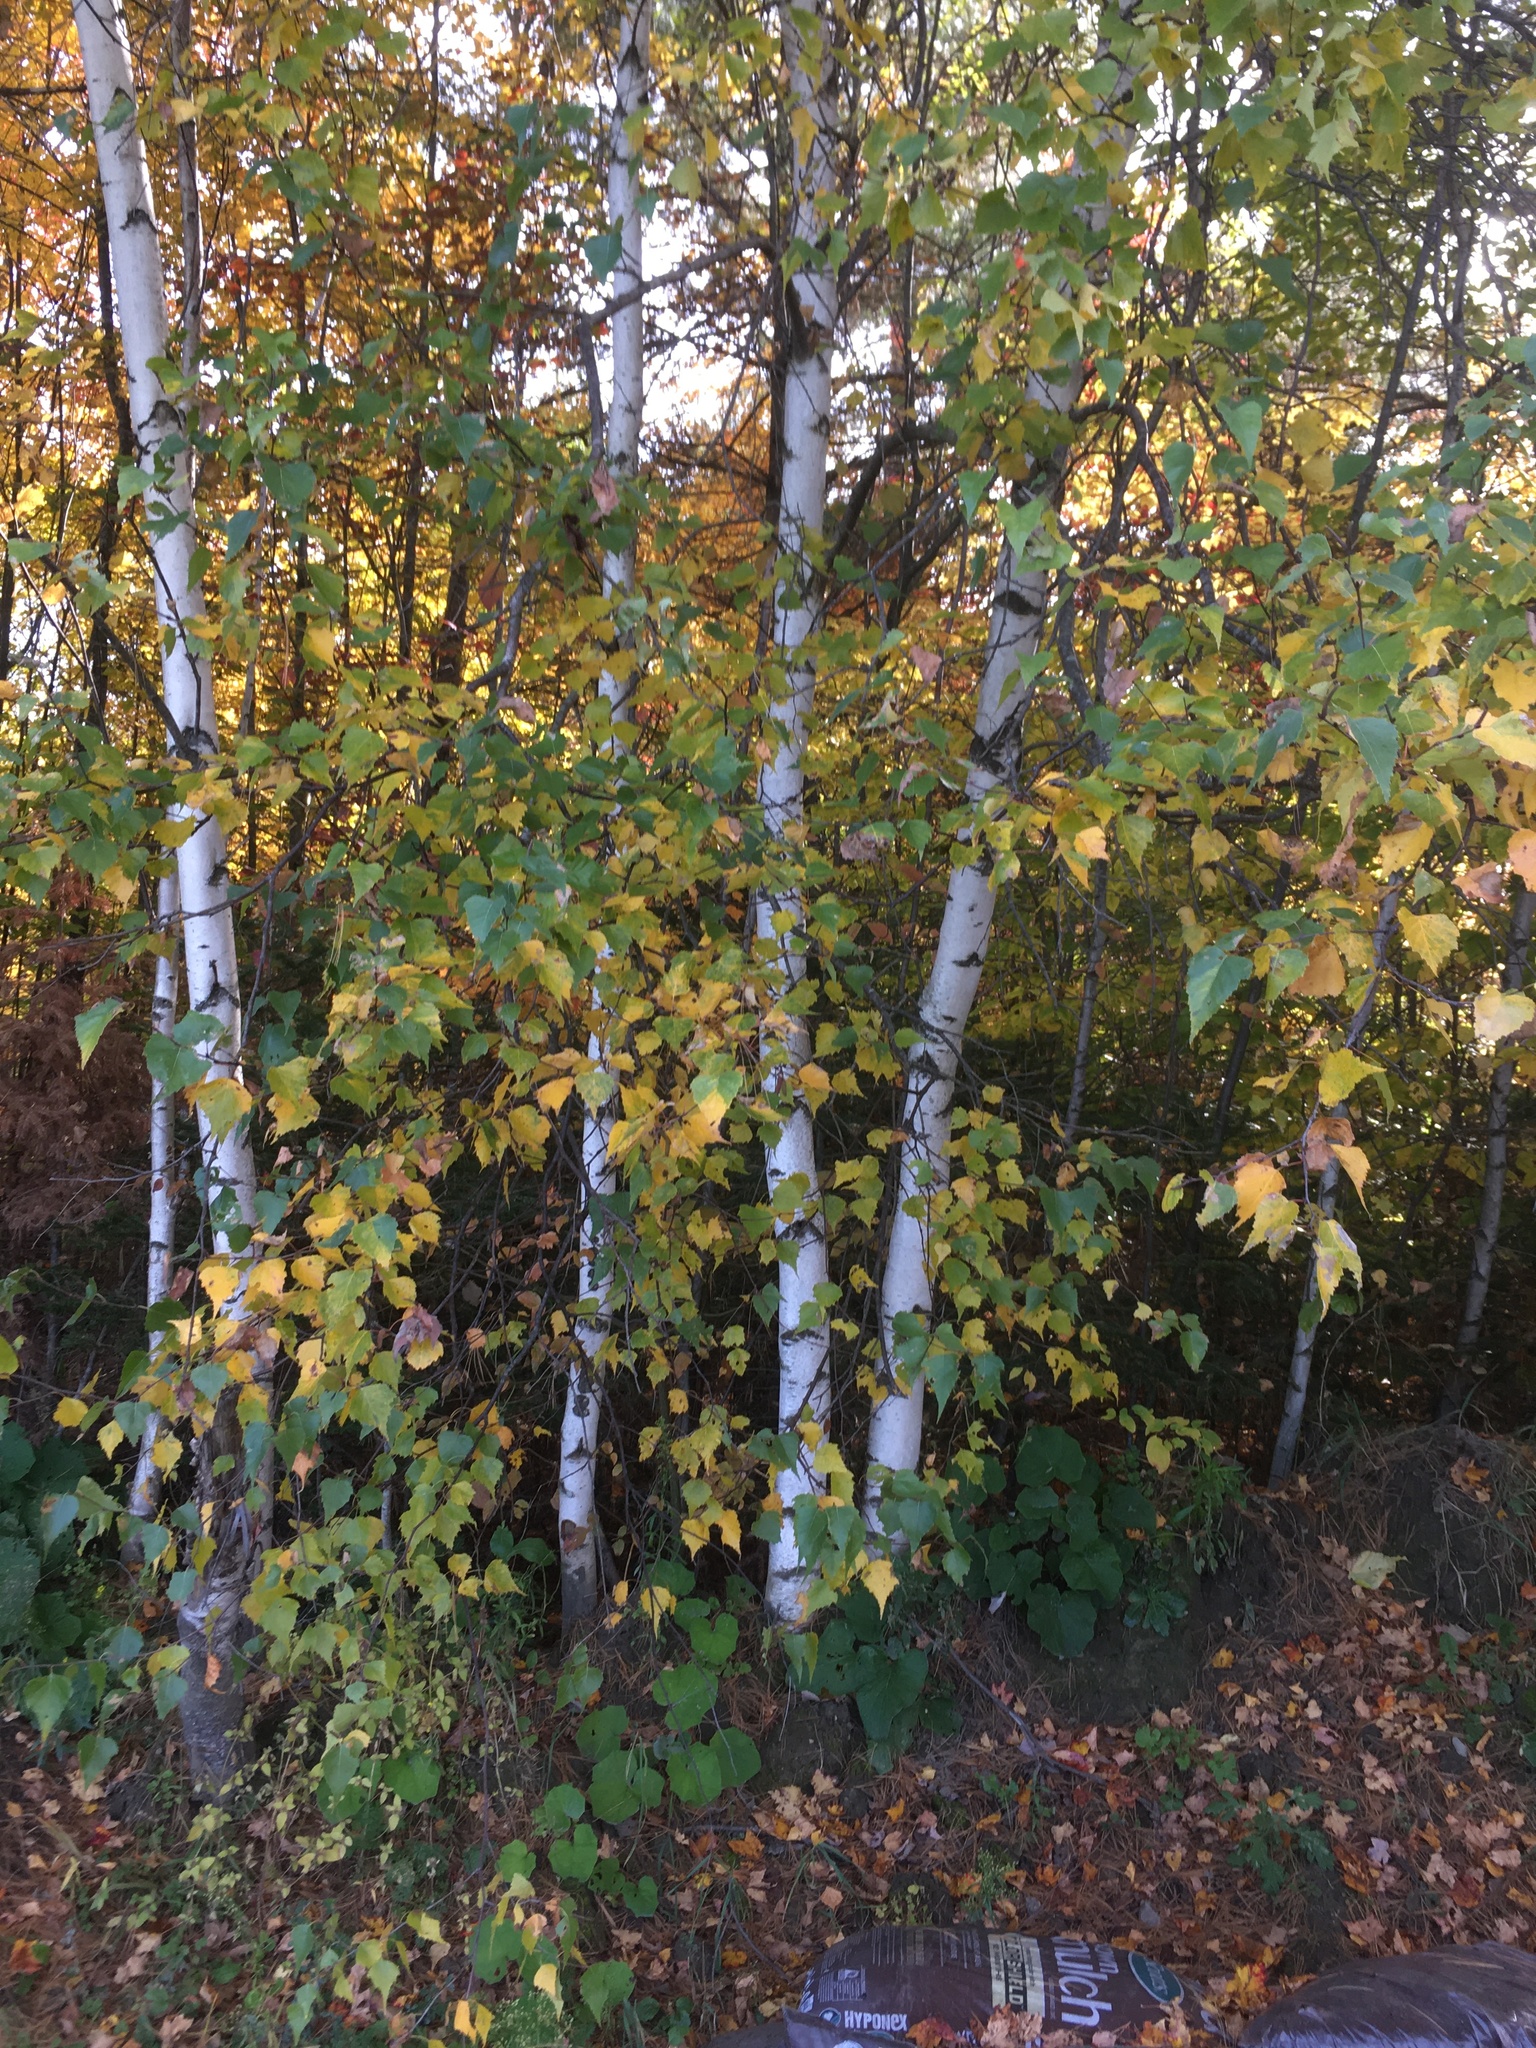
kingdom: Plantae
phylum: Tracheophyta
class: Magnoliopsida
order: Fagales
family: Betulaceae
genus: Betula
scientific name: Betula populifolia
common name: Fire birch
